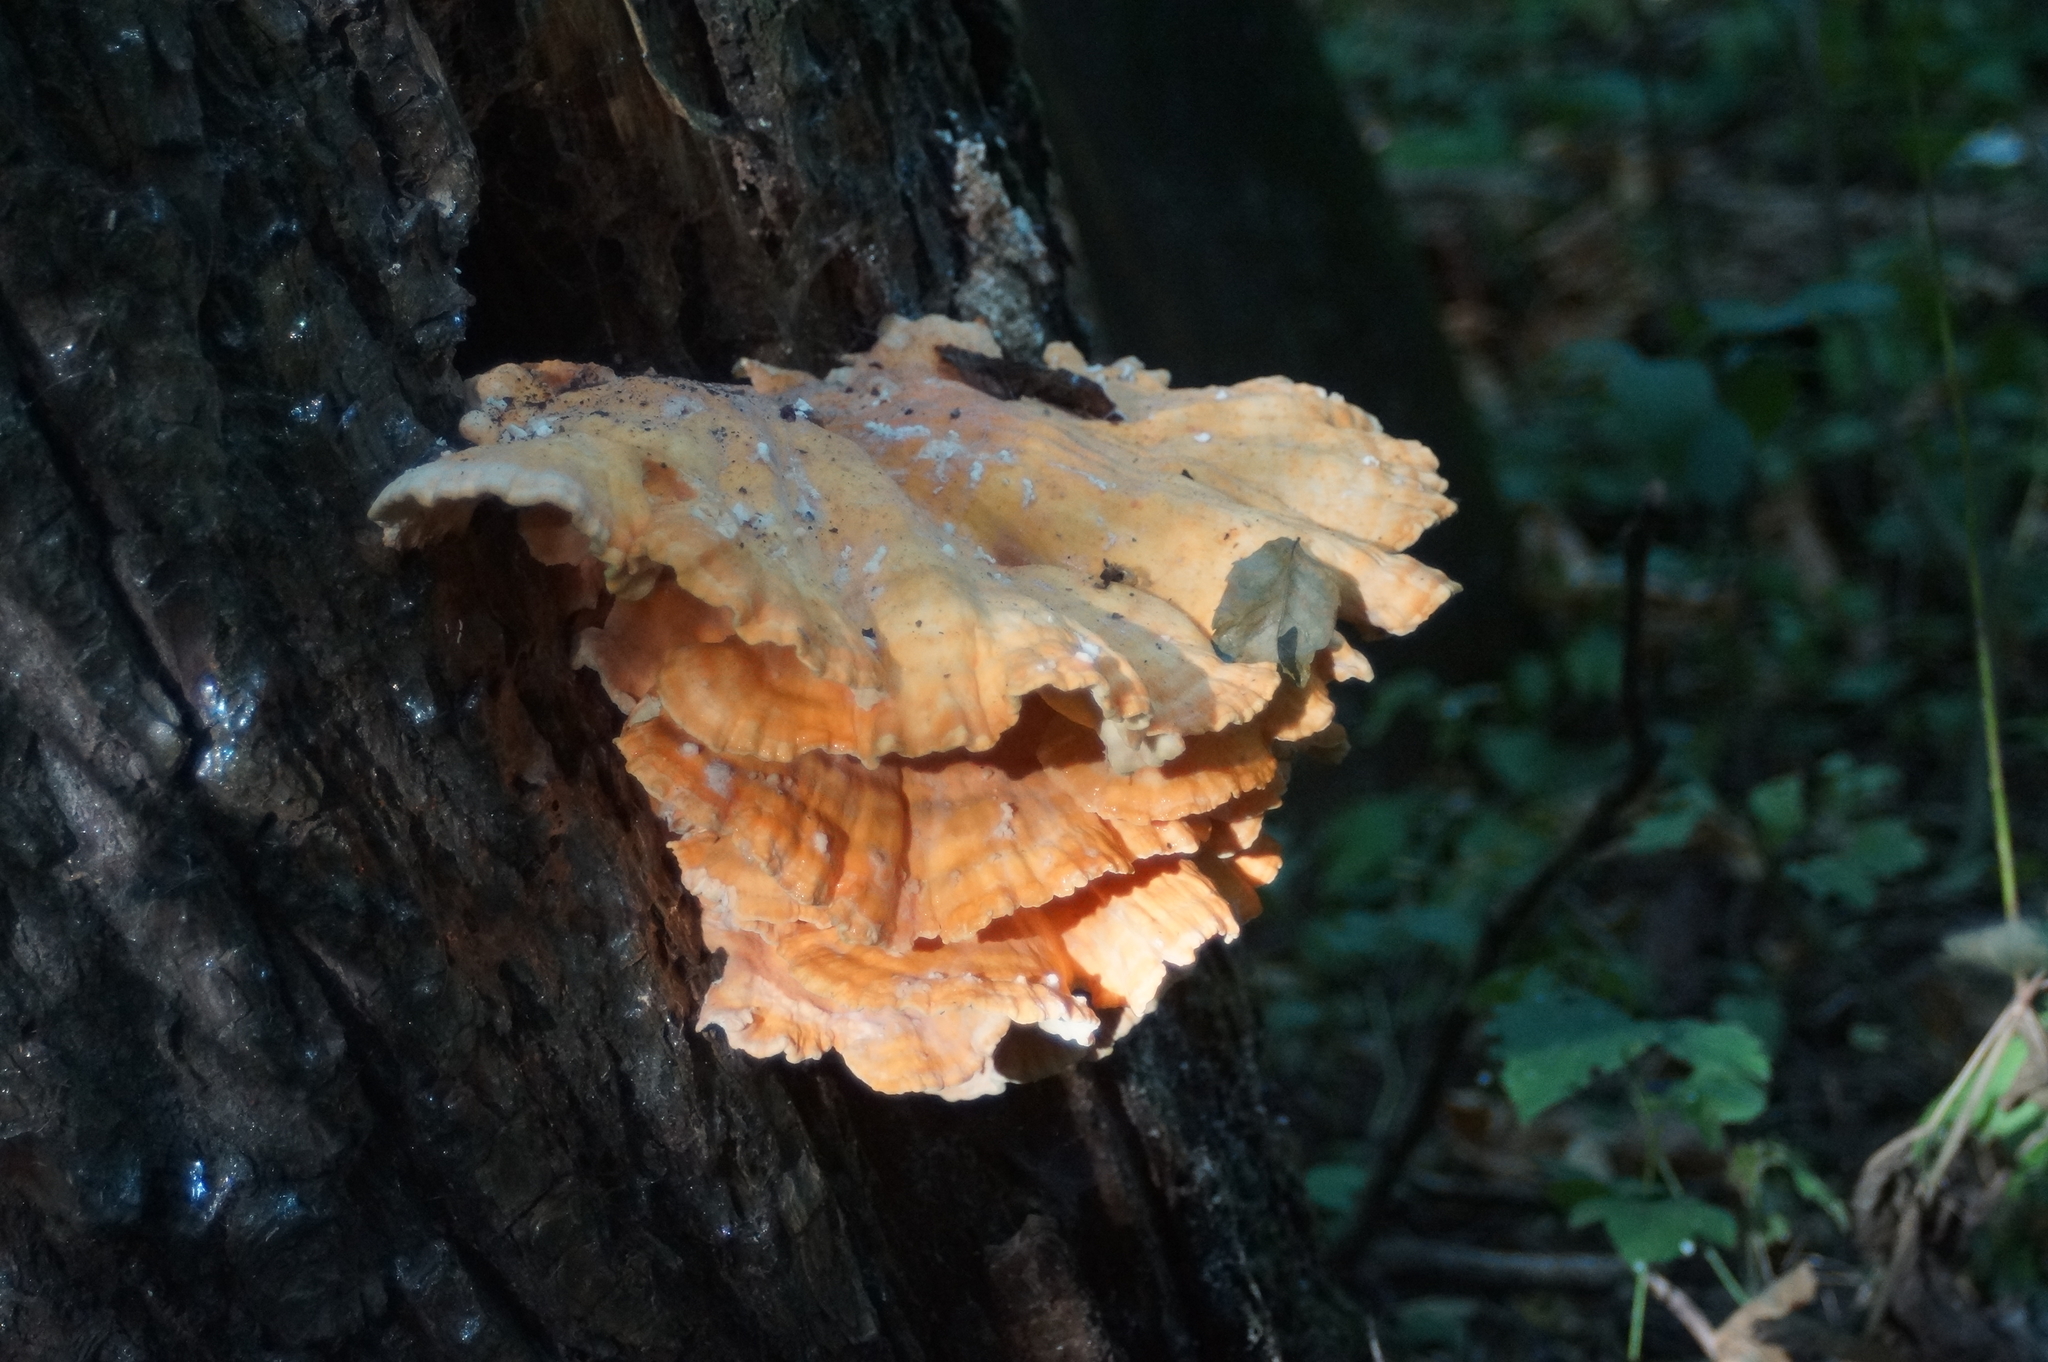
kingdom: Fungi
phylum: Basidiomycota
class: Agaricomycetes
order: Polyporales
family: Laetiporaceae
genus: Laetiporus
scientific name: Laetiporus sulphureus
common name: Chicken of the woods
